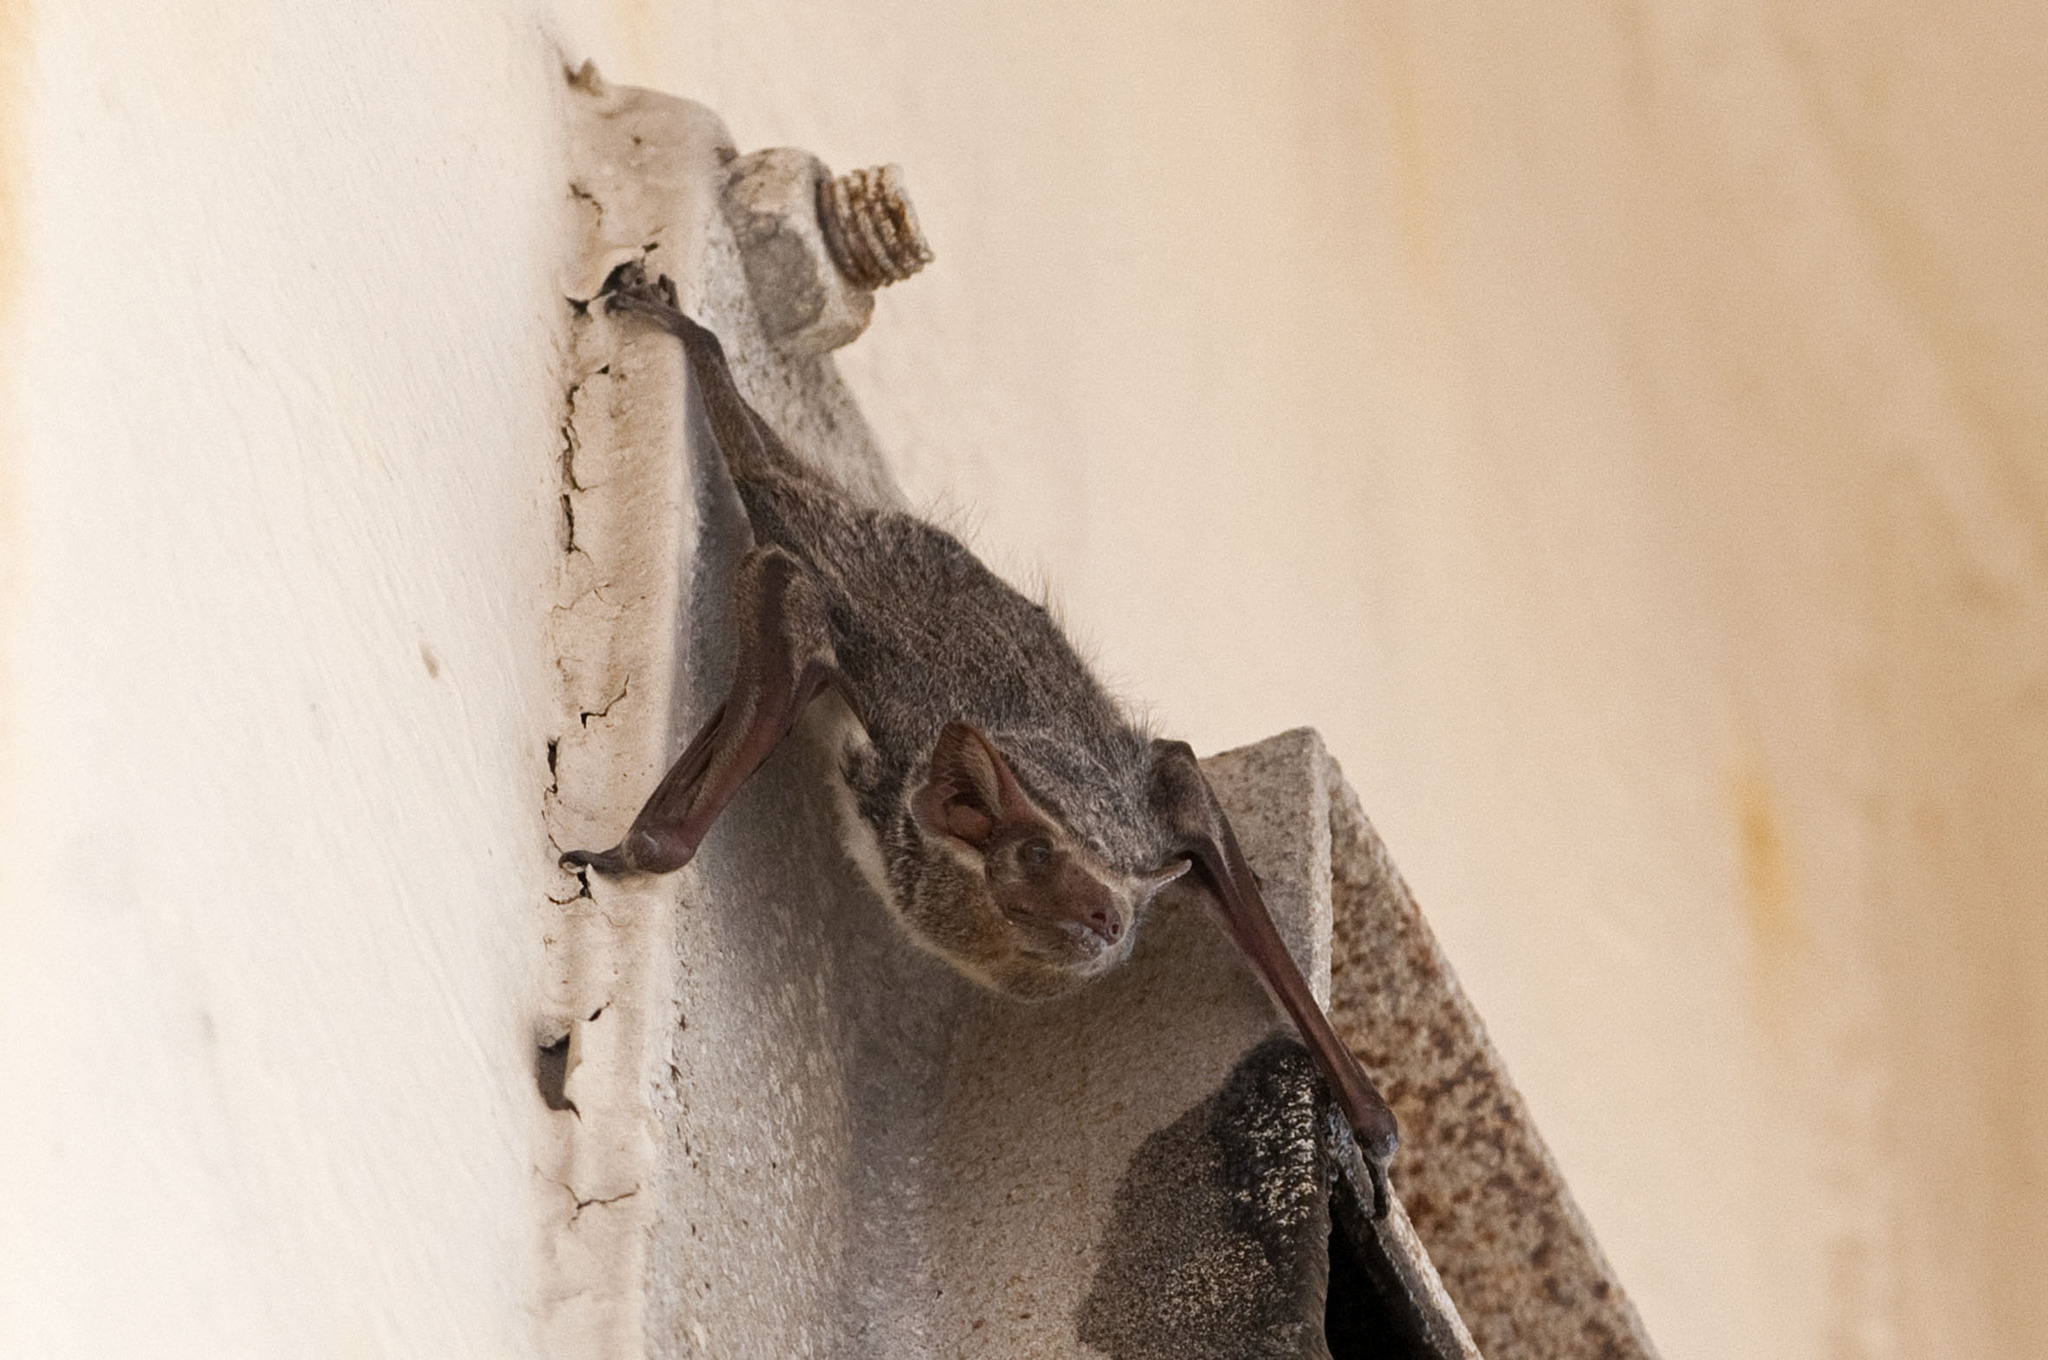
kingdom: Animalia
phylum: Chordata
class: Mammalia
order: Chiroptera
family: Emballonuridae
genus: Taphozous
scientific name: Taphozous mauritianus
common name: Mauritian tomb bat
